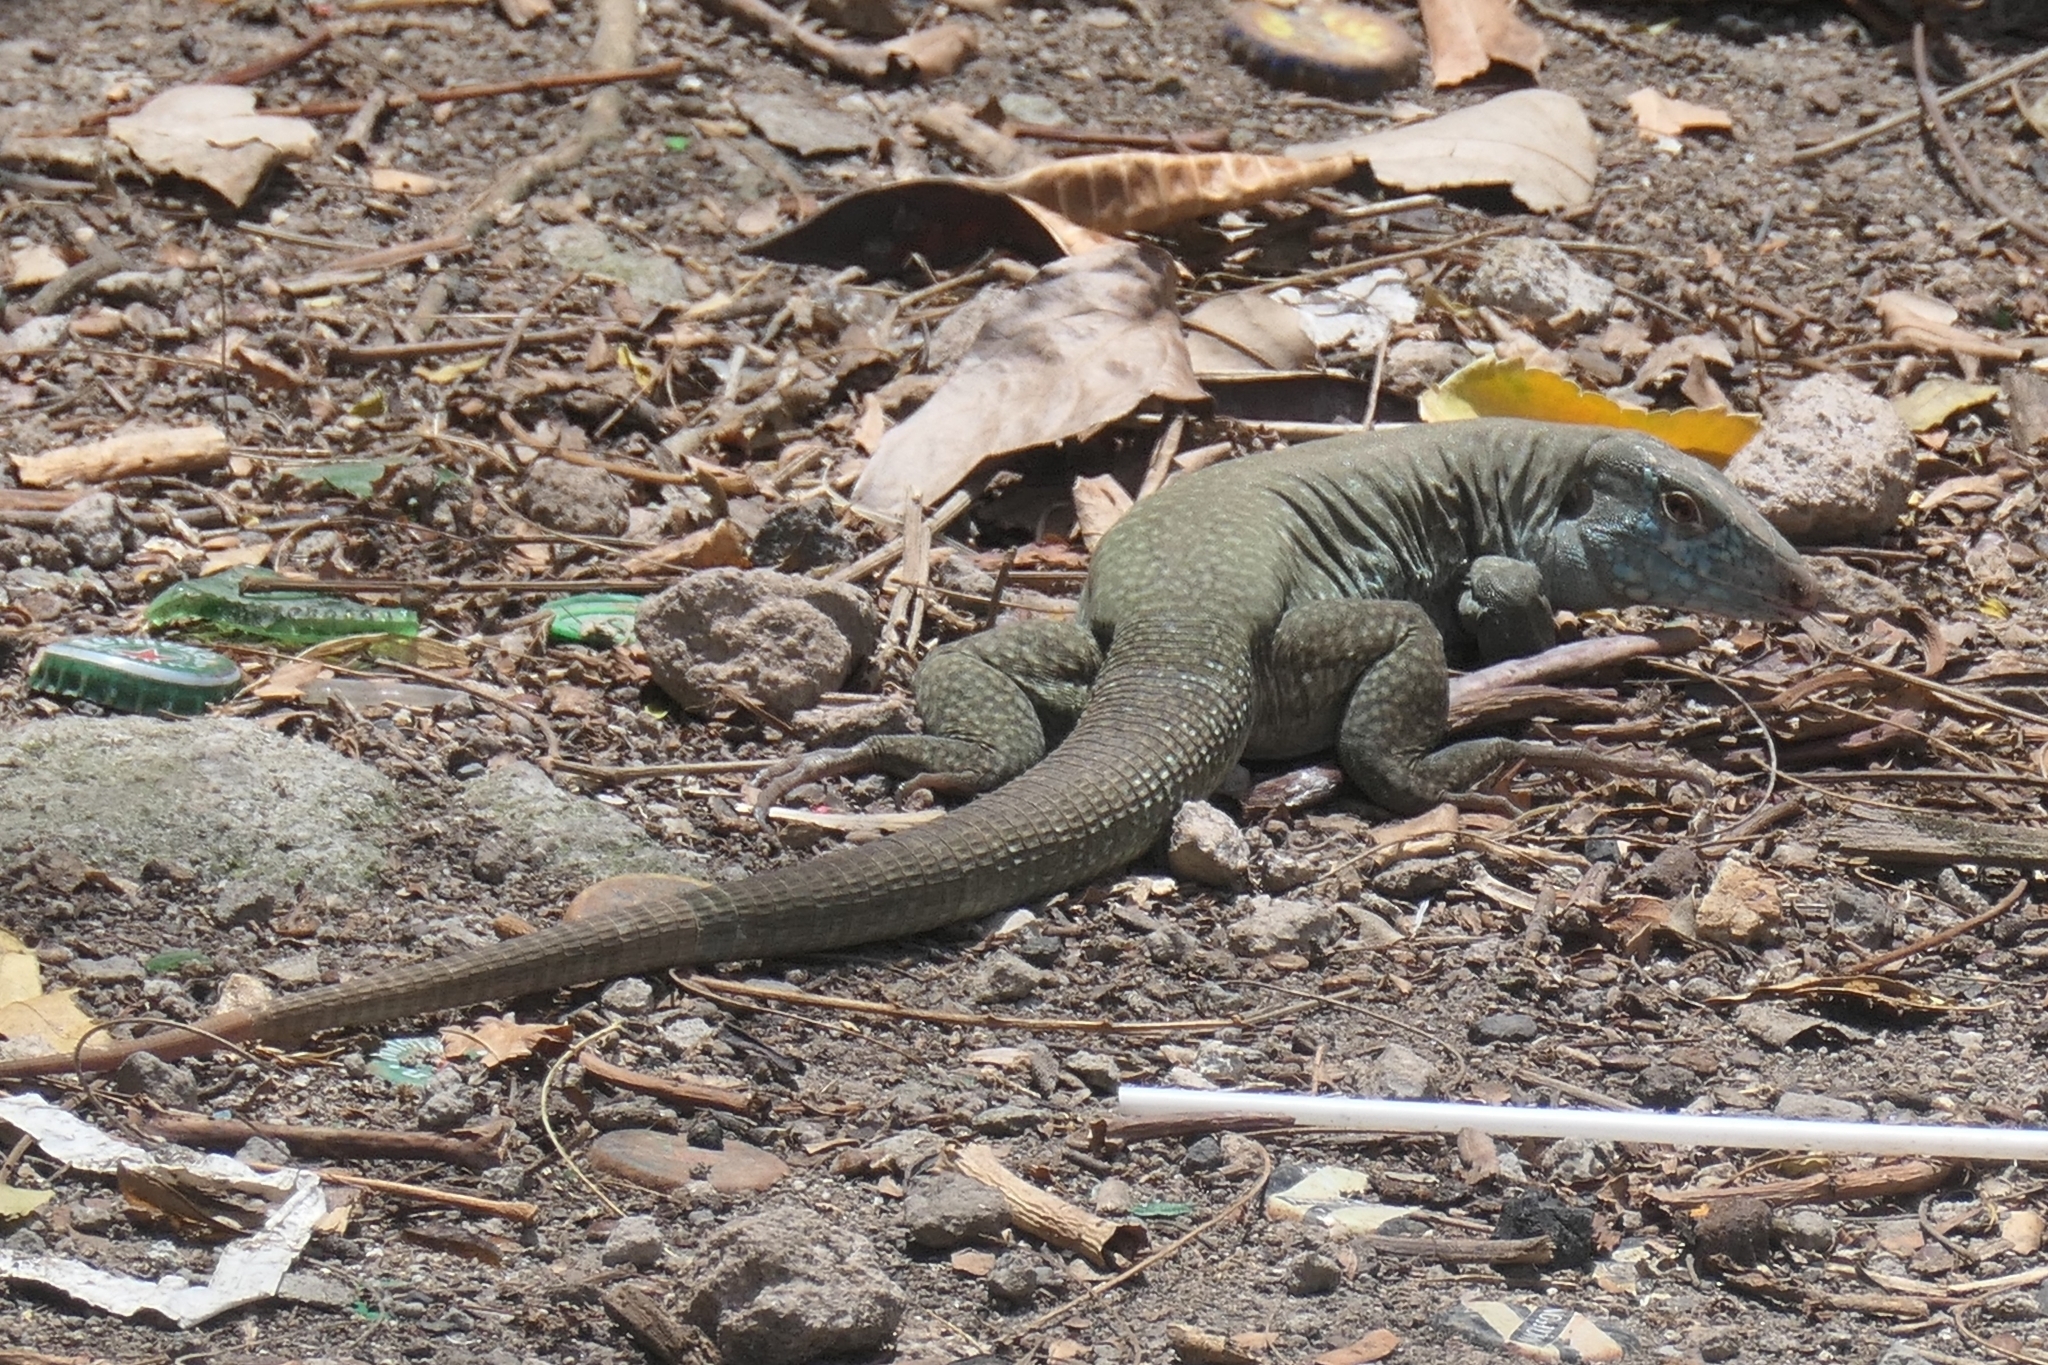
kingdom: Animalia
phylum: Chordata
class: Squamata
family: Teiidae
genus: Pholidoscelis
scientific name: Pholidoscelis pluvianotatus
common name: Montiserrat ameiva
